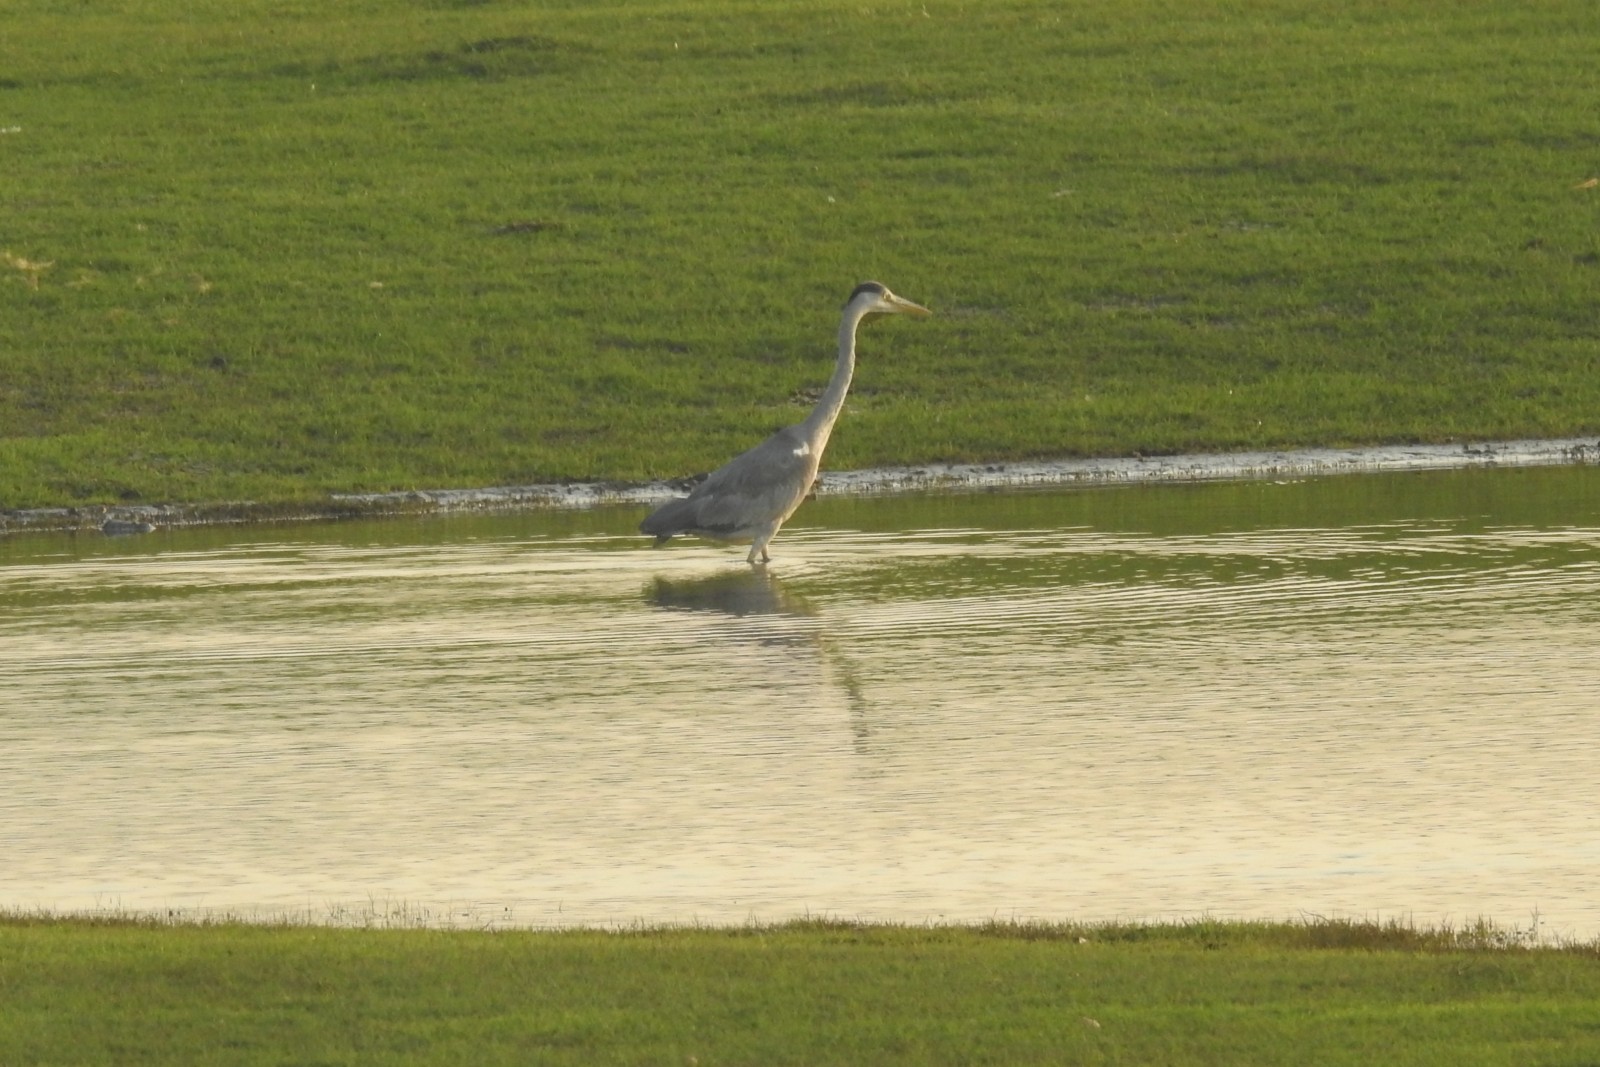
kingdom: Animalia
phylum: Chordata
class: Aves
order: Pelecaniformes
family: Ardeidae
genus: Ardea
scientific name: Ardea cinerea
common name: Grey heron
